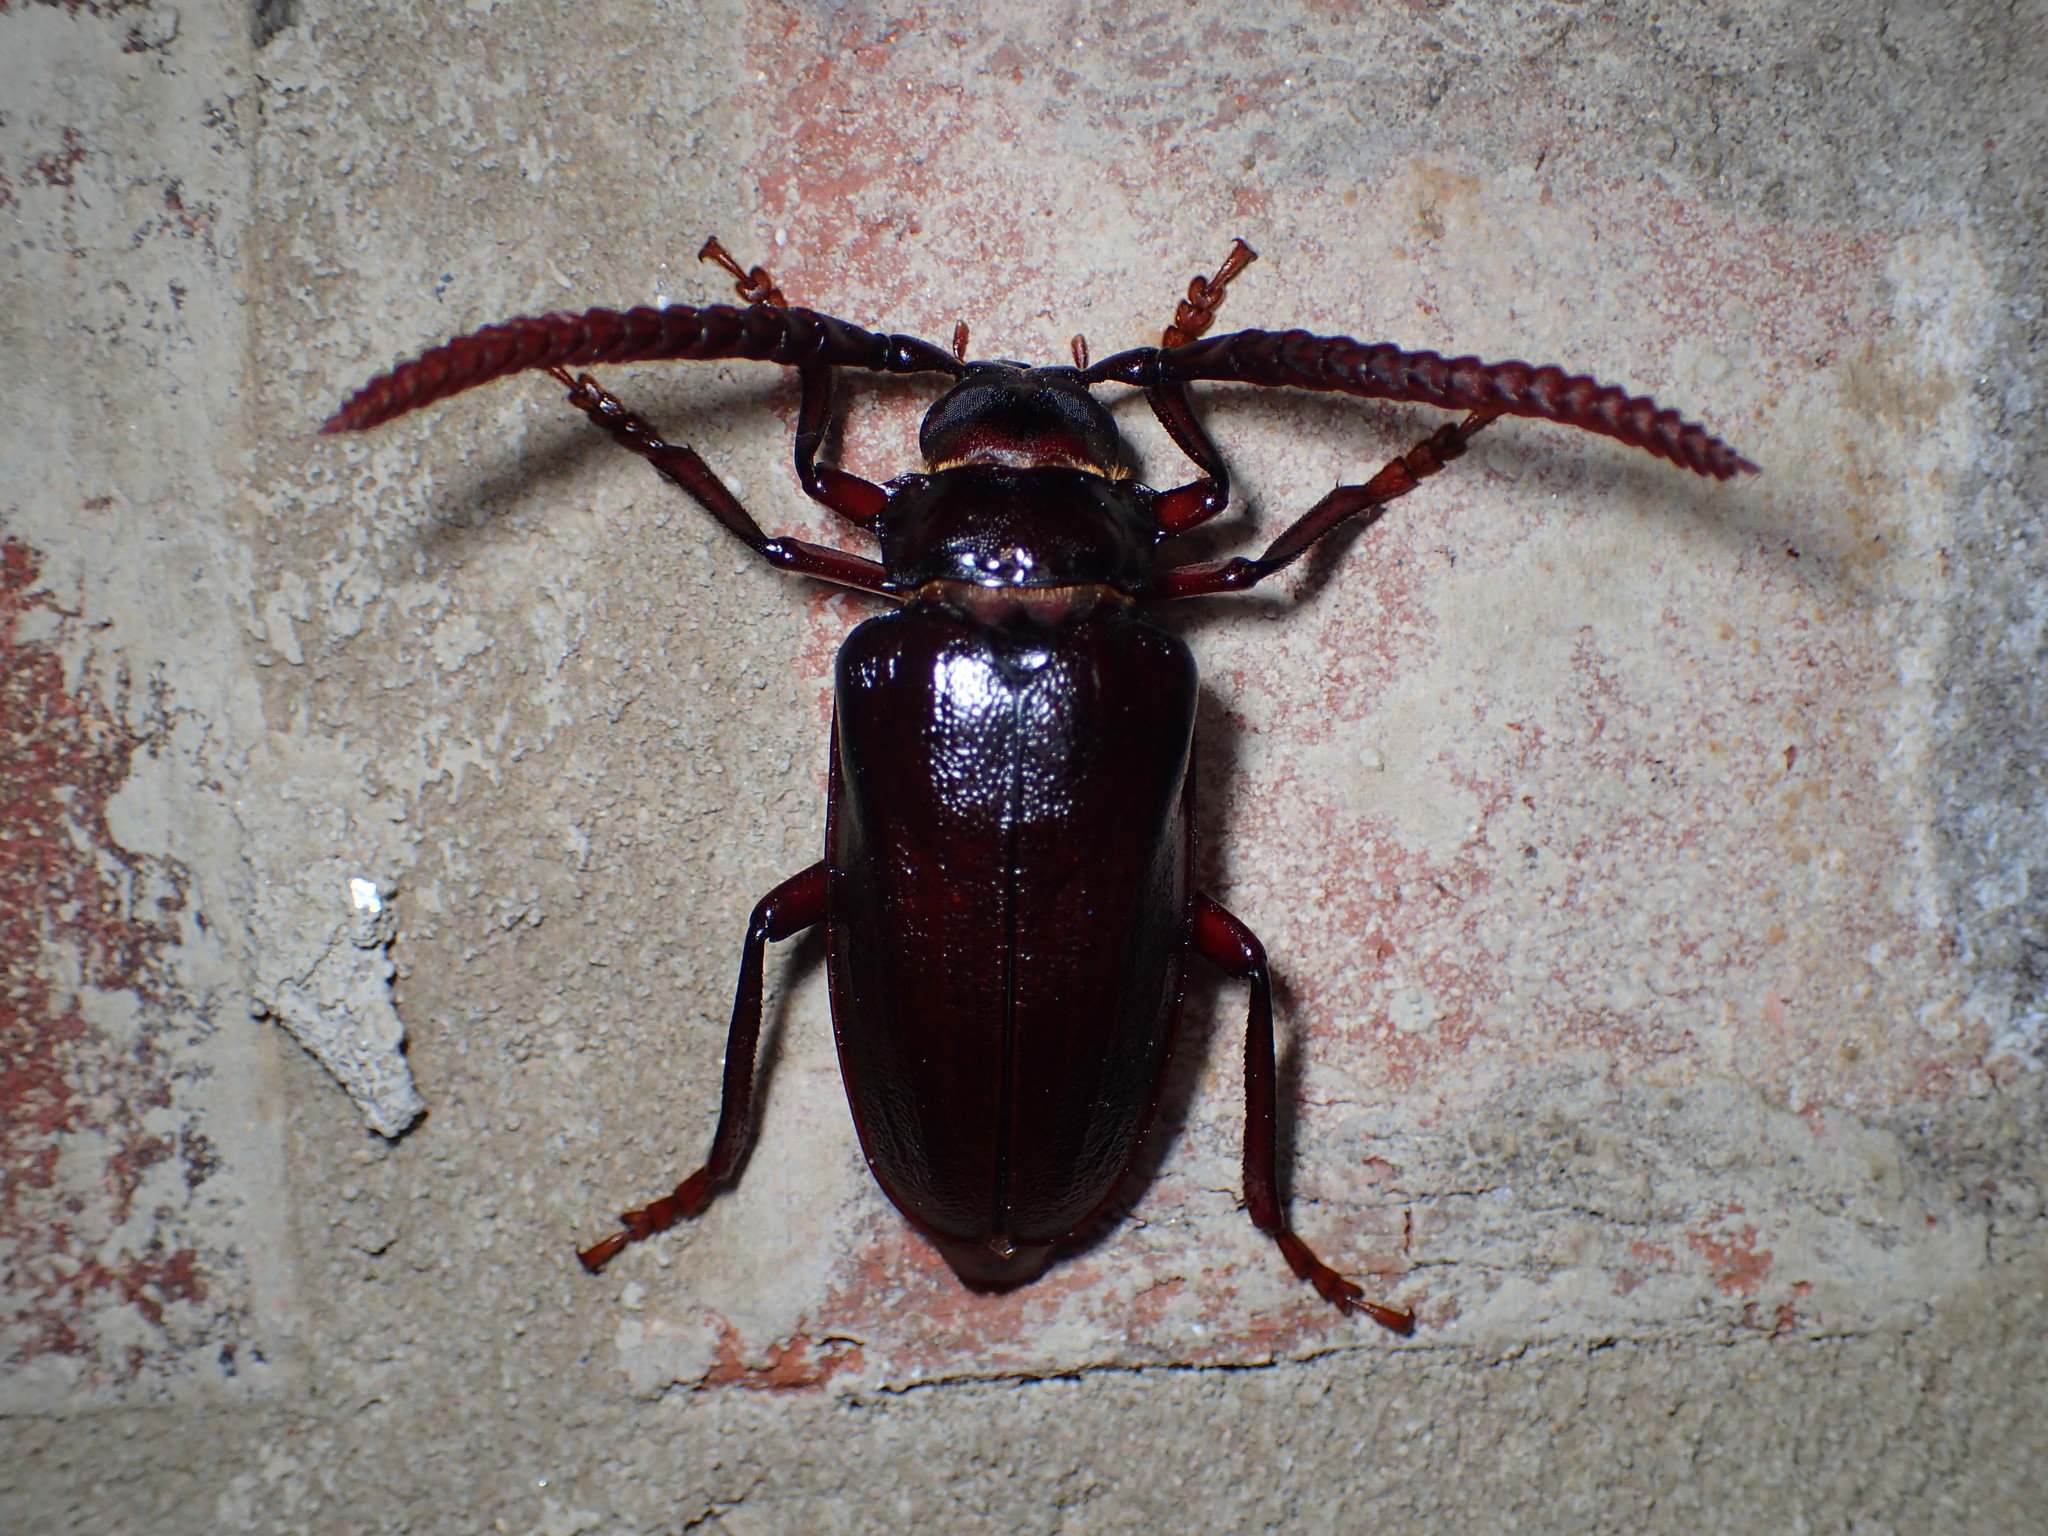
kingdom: Animalia
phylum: Arthropoda
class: Insecta
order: Coleoptera
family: Cerambycidae
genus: Prionus
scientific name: Prionus imbricornis
